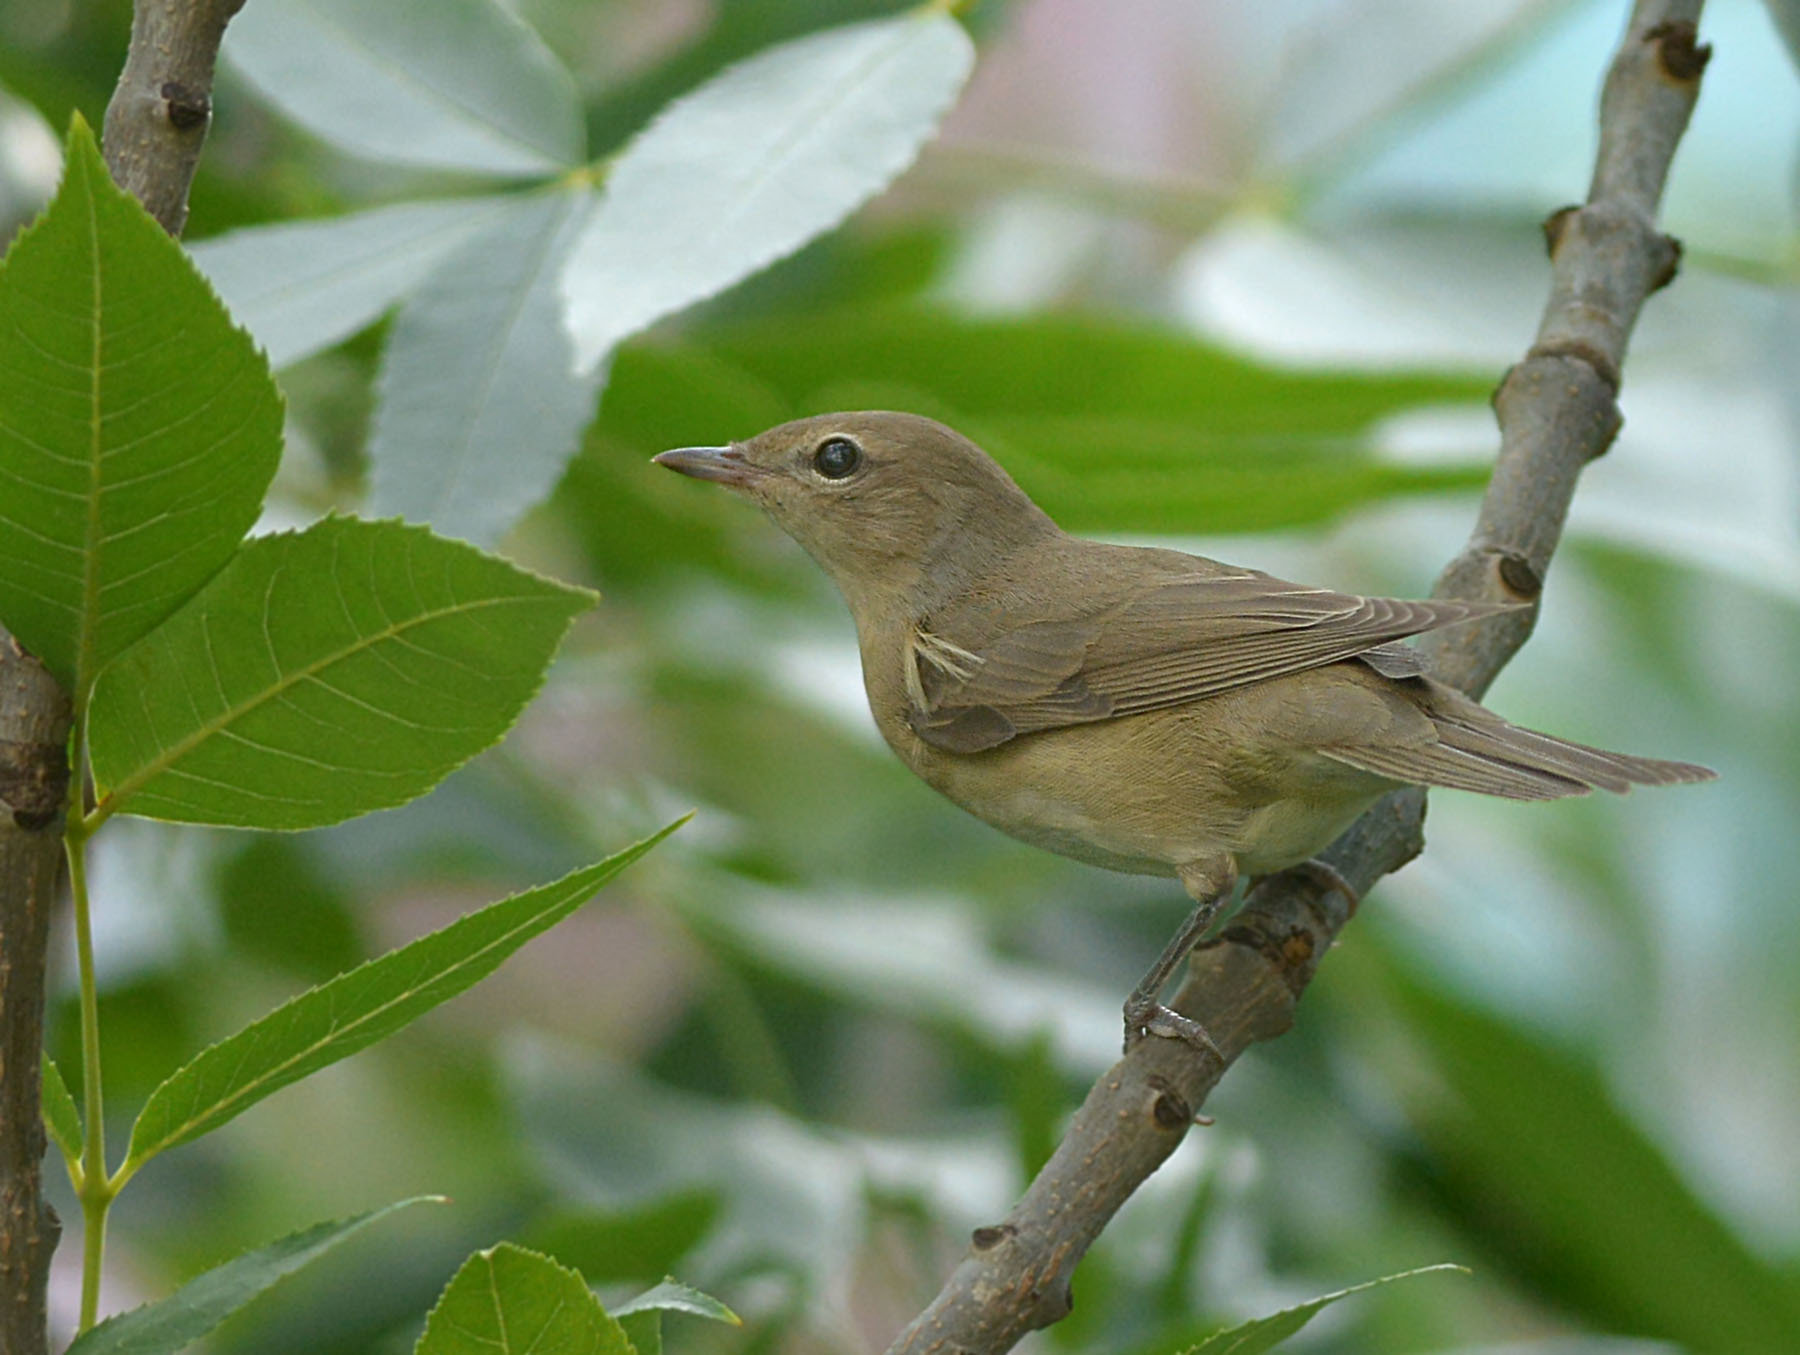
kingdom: Animalia
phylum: Chordata
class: Aves
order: Passeriformes
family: Sylviidae
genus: Sylvia
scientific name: Sylvia borin
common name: Garden warbler
